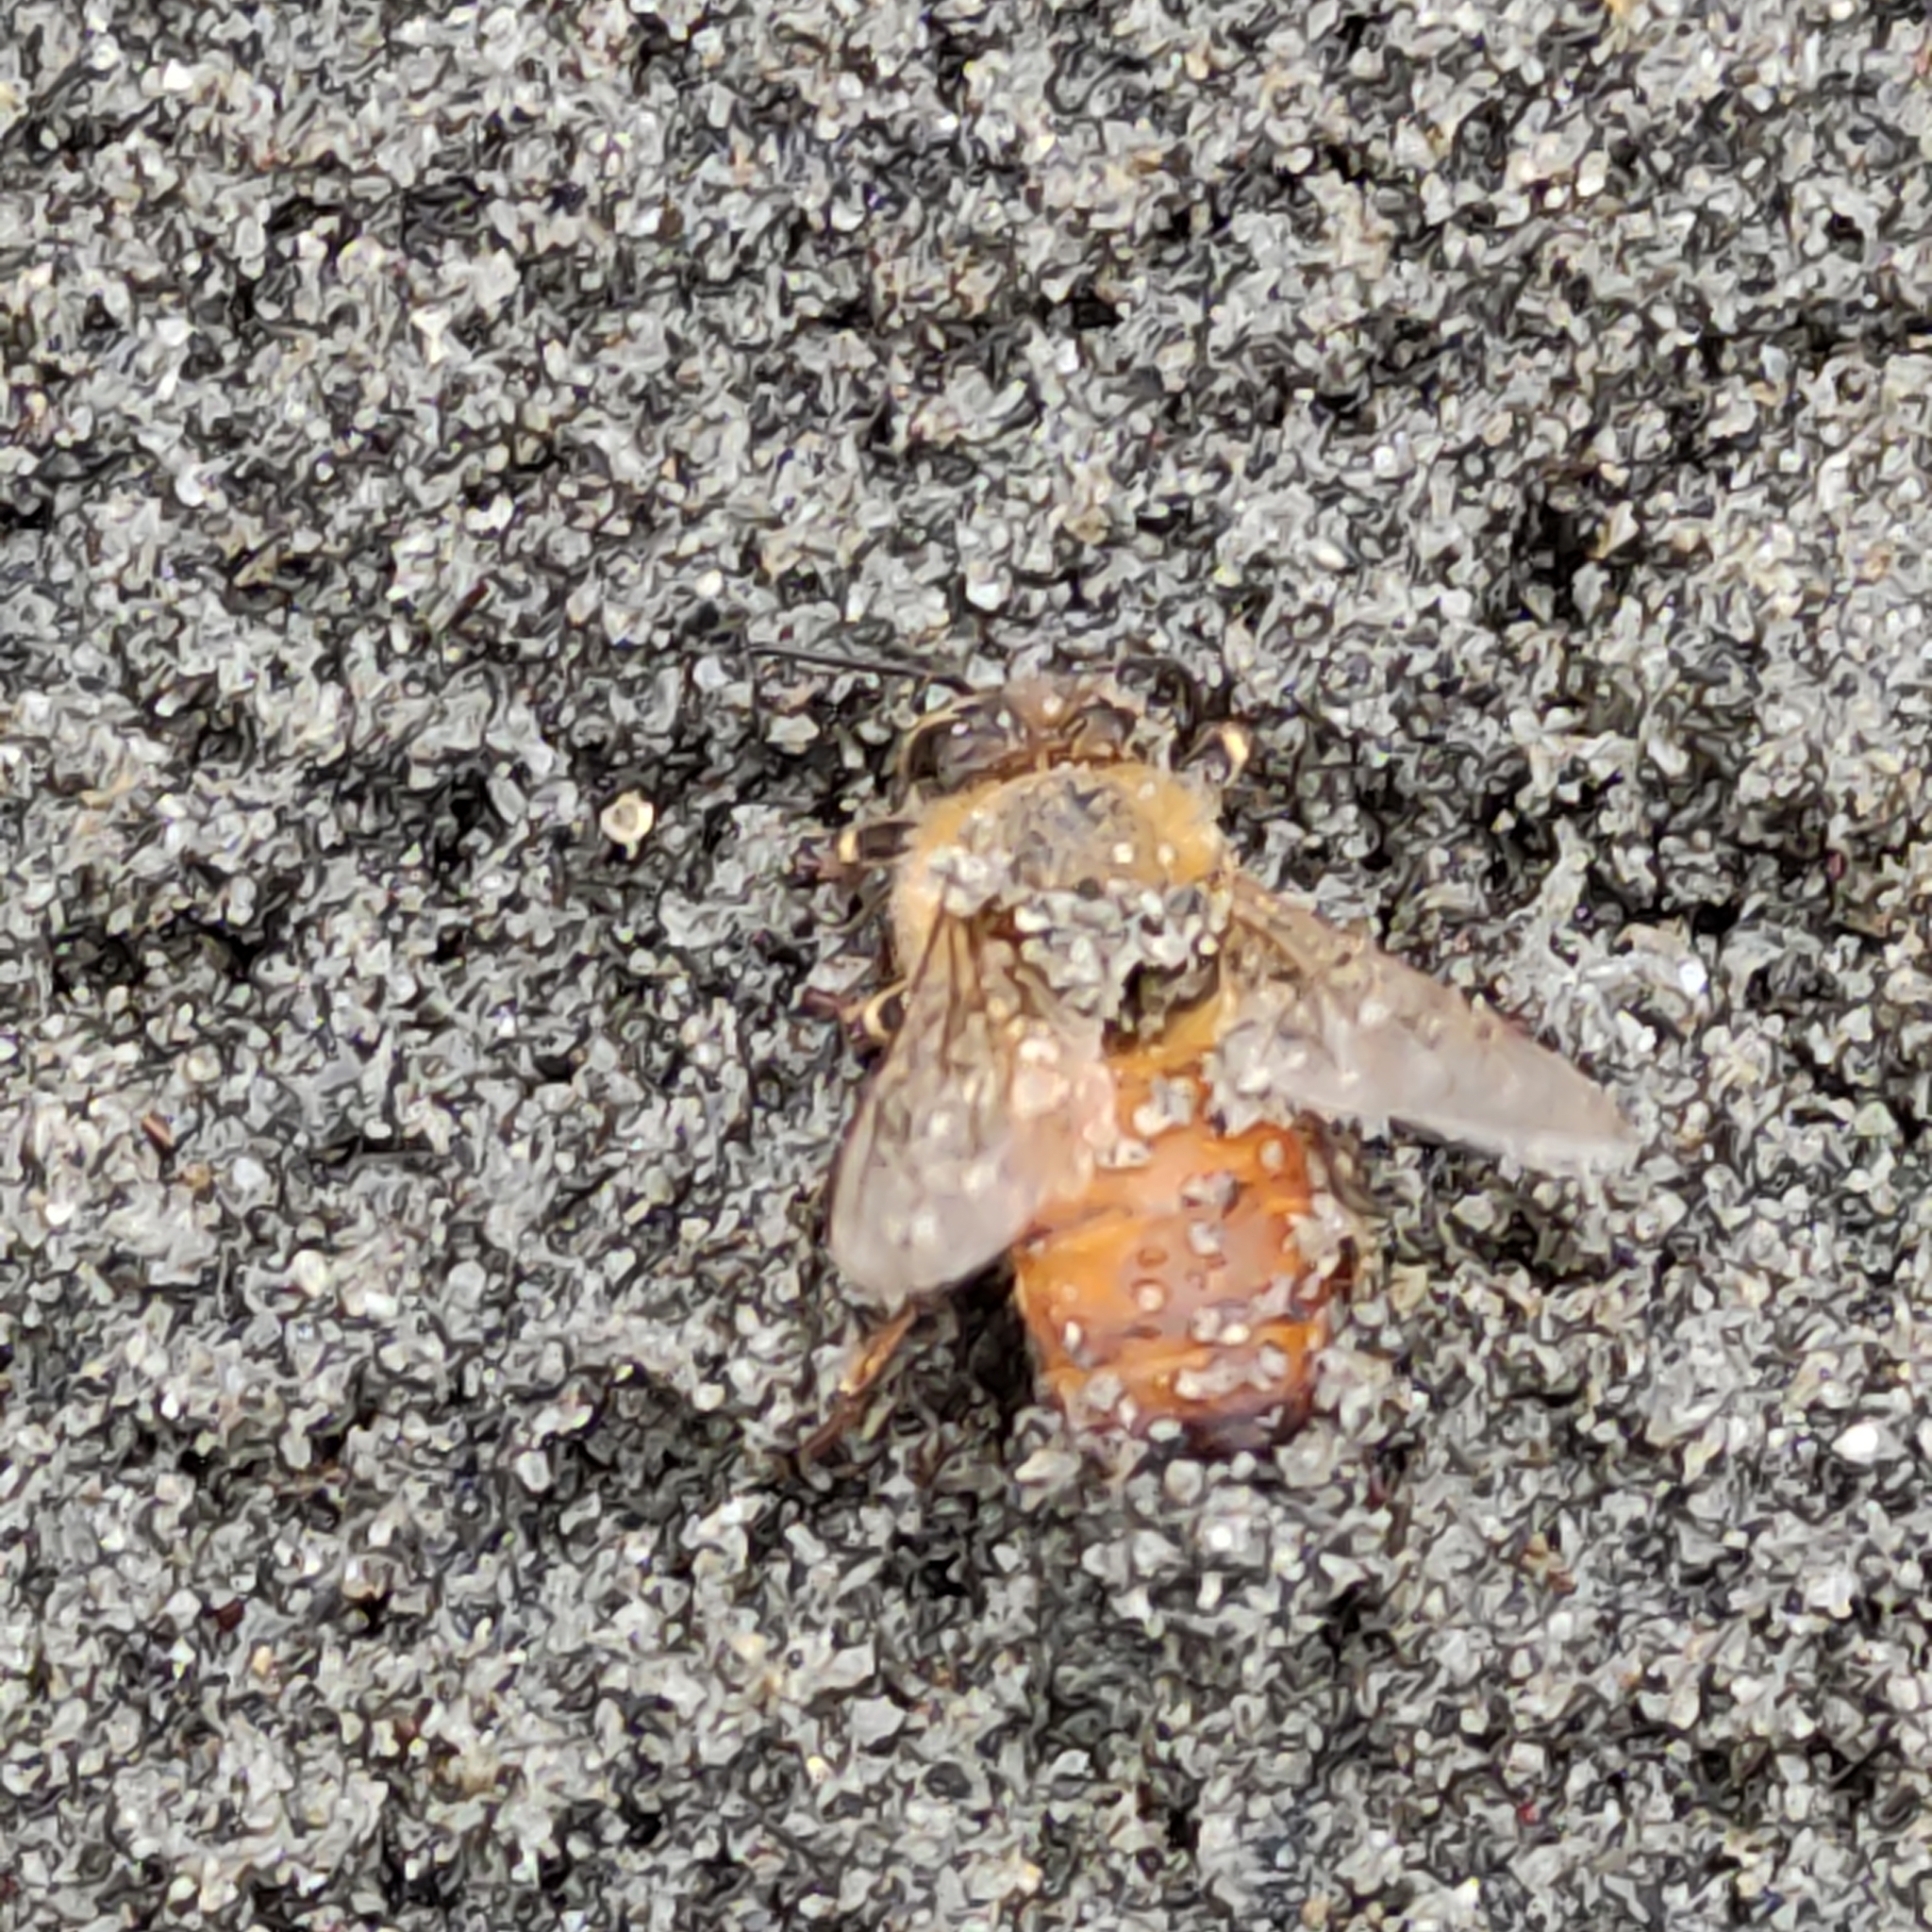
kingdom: Animalia
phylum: Arthropoda
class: Insecta
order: Hymenoptera
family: Apidae
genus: Apis
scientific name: Apis mellifera
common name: Honey bee
